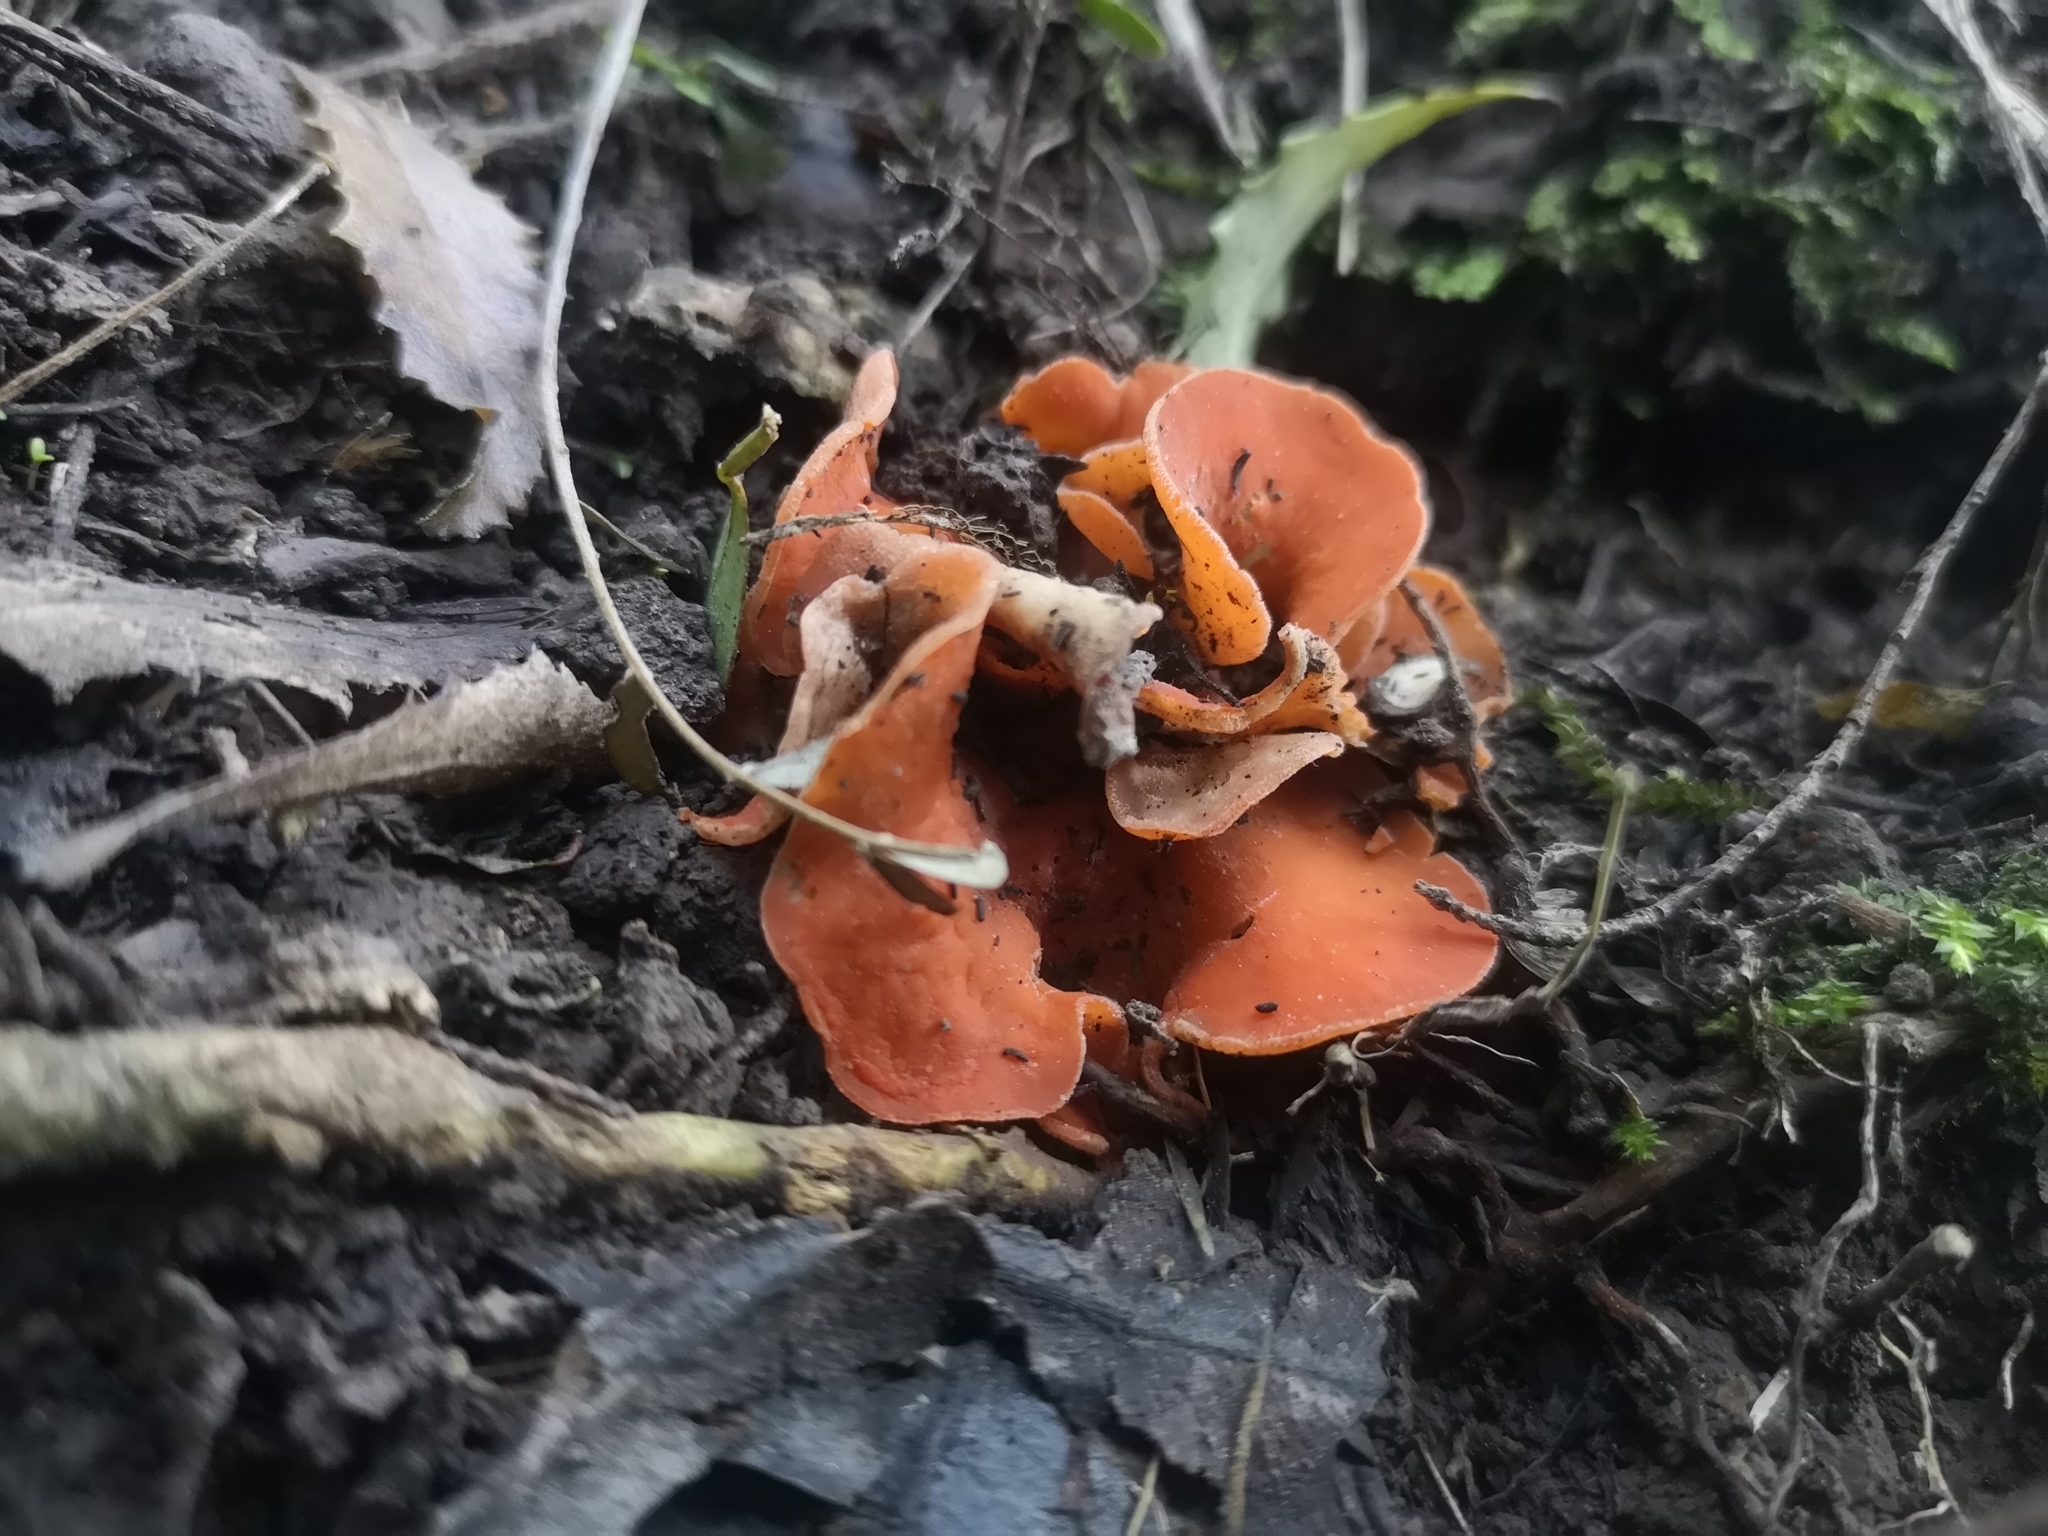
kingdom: Fungi
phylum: Ascomycota
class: Pezizomycetes
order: Pezizales
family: Pyronemataceae
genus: Aleuria
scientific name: Aleuria aurantia
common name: Orange peel fungus
